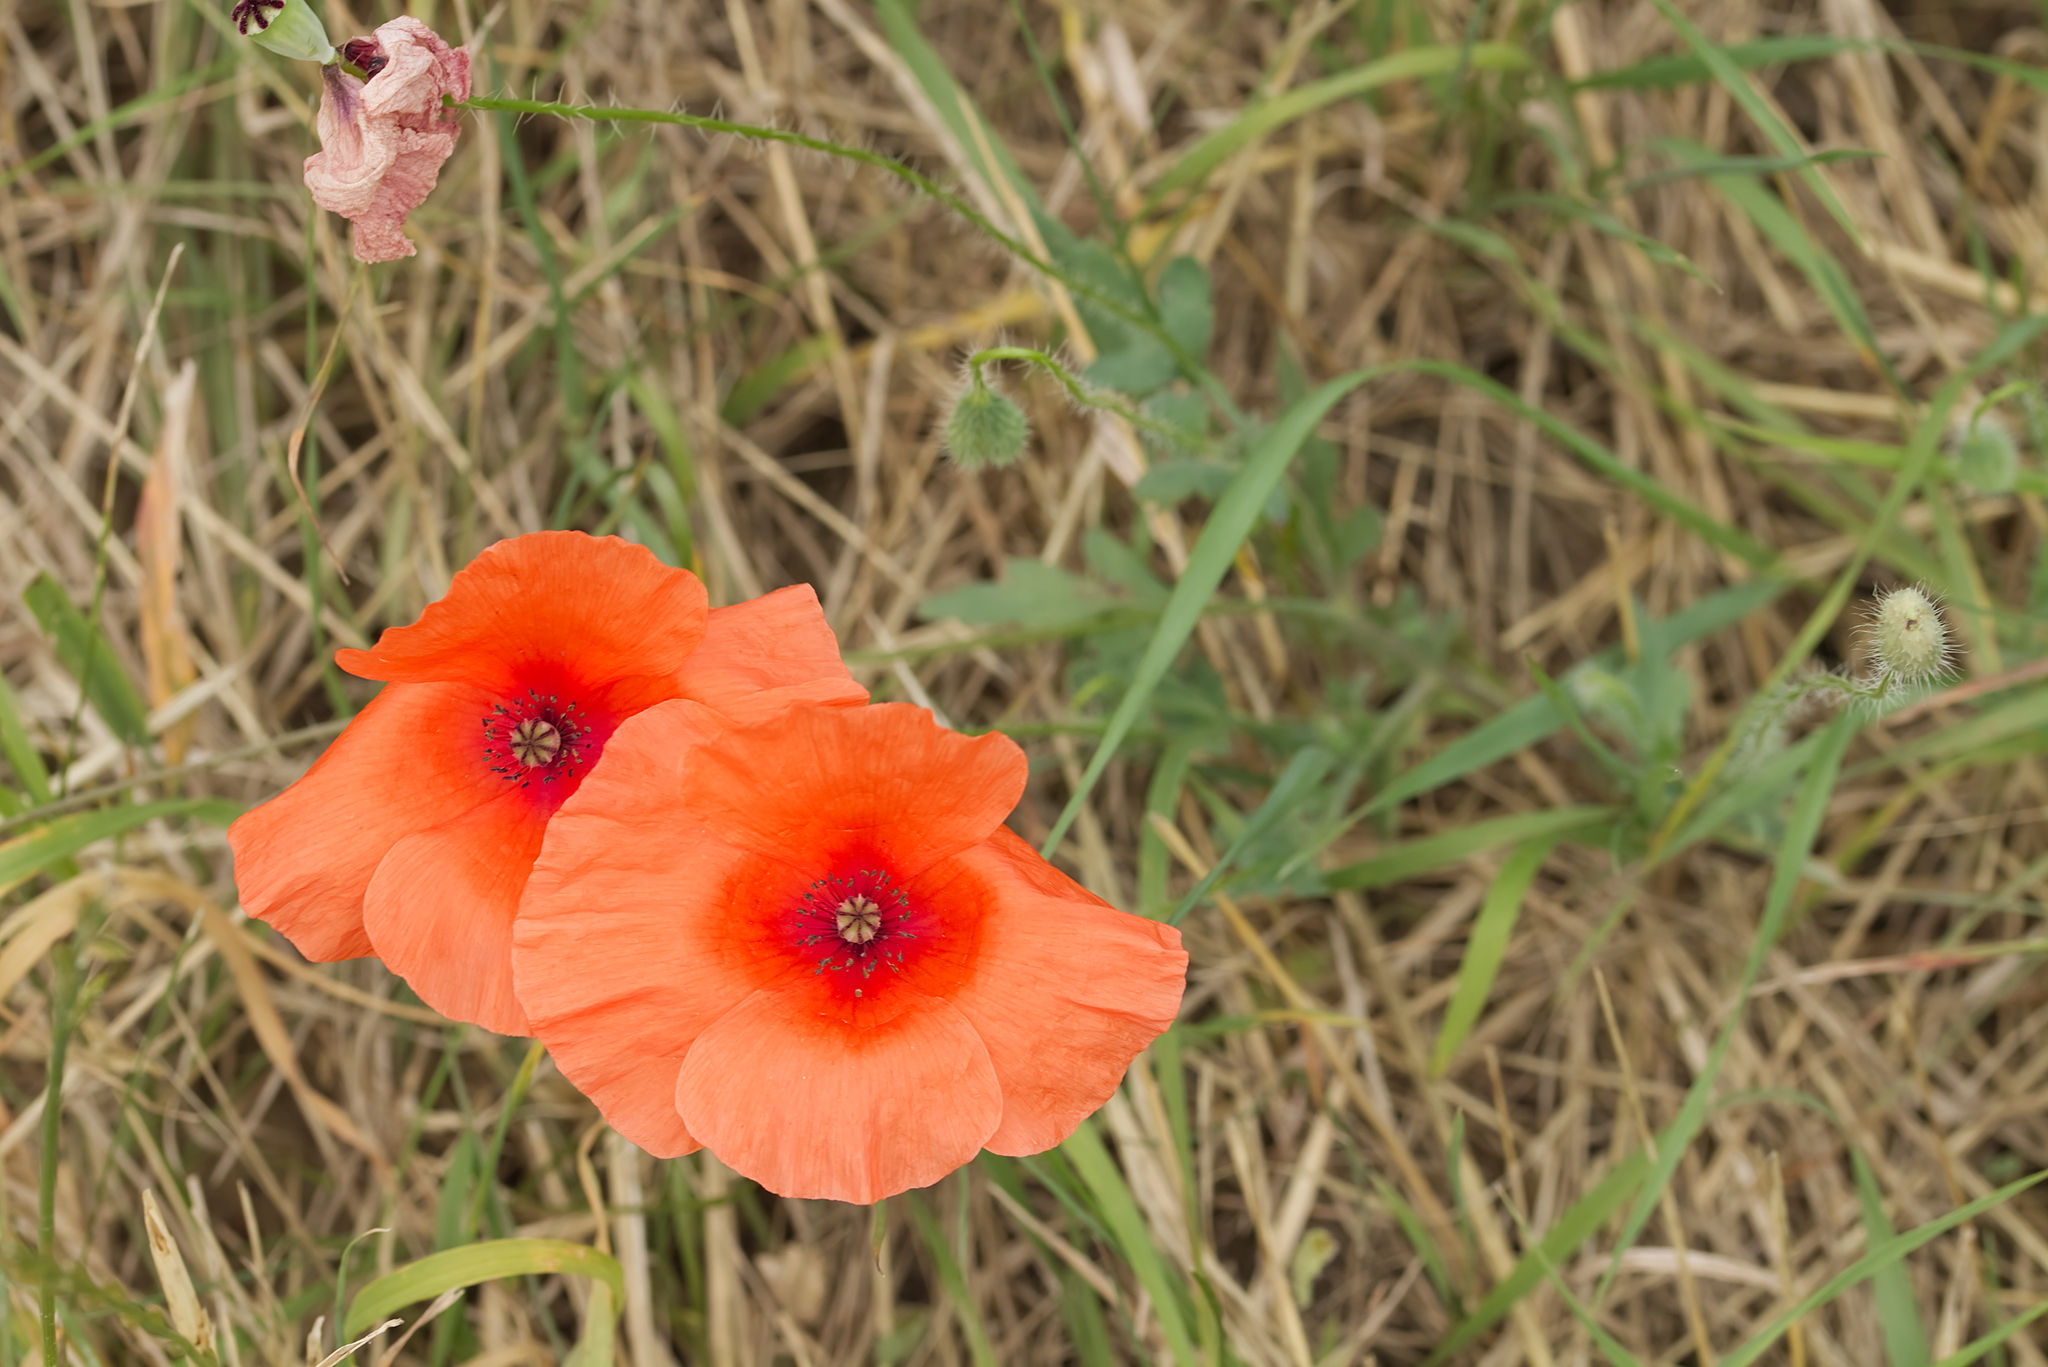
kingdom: Plantae
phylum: Tracheophyta
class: Magnoliopsida
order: Ranunculales
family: Papaveraceae
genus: Papaver
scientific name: Papaver rhoeas
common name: Corn poppy
